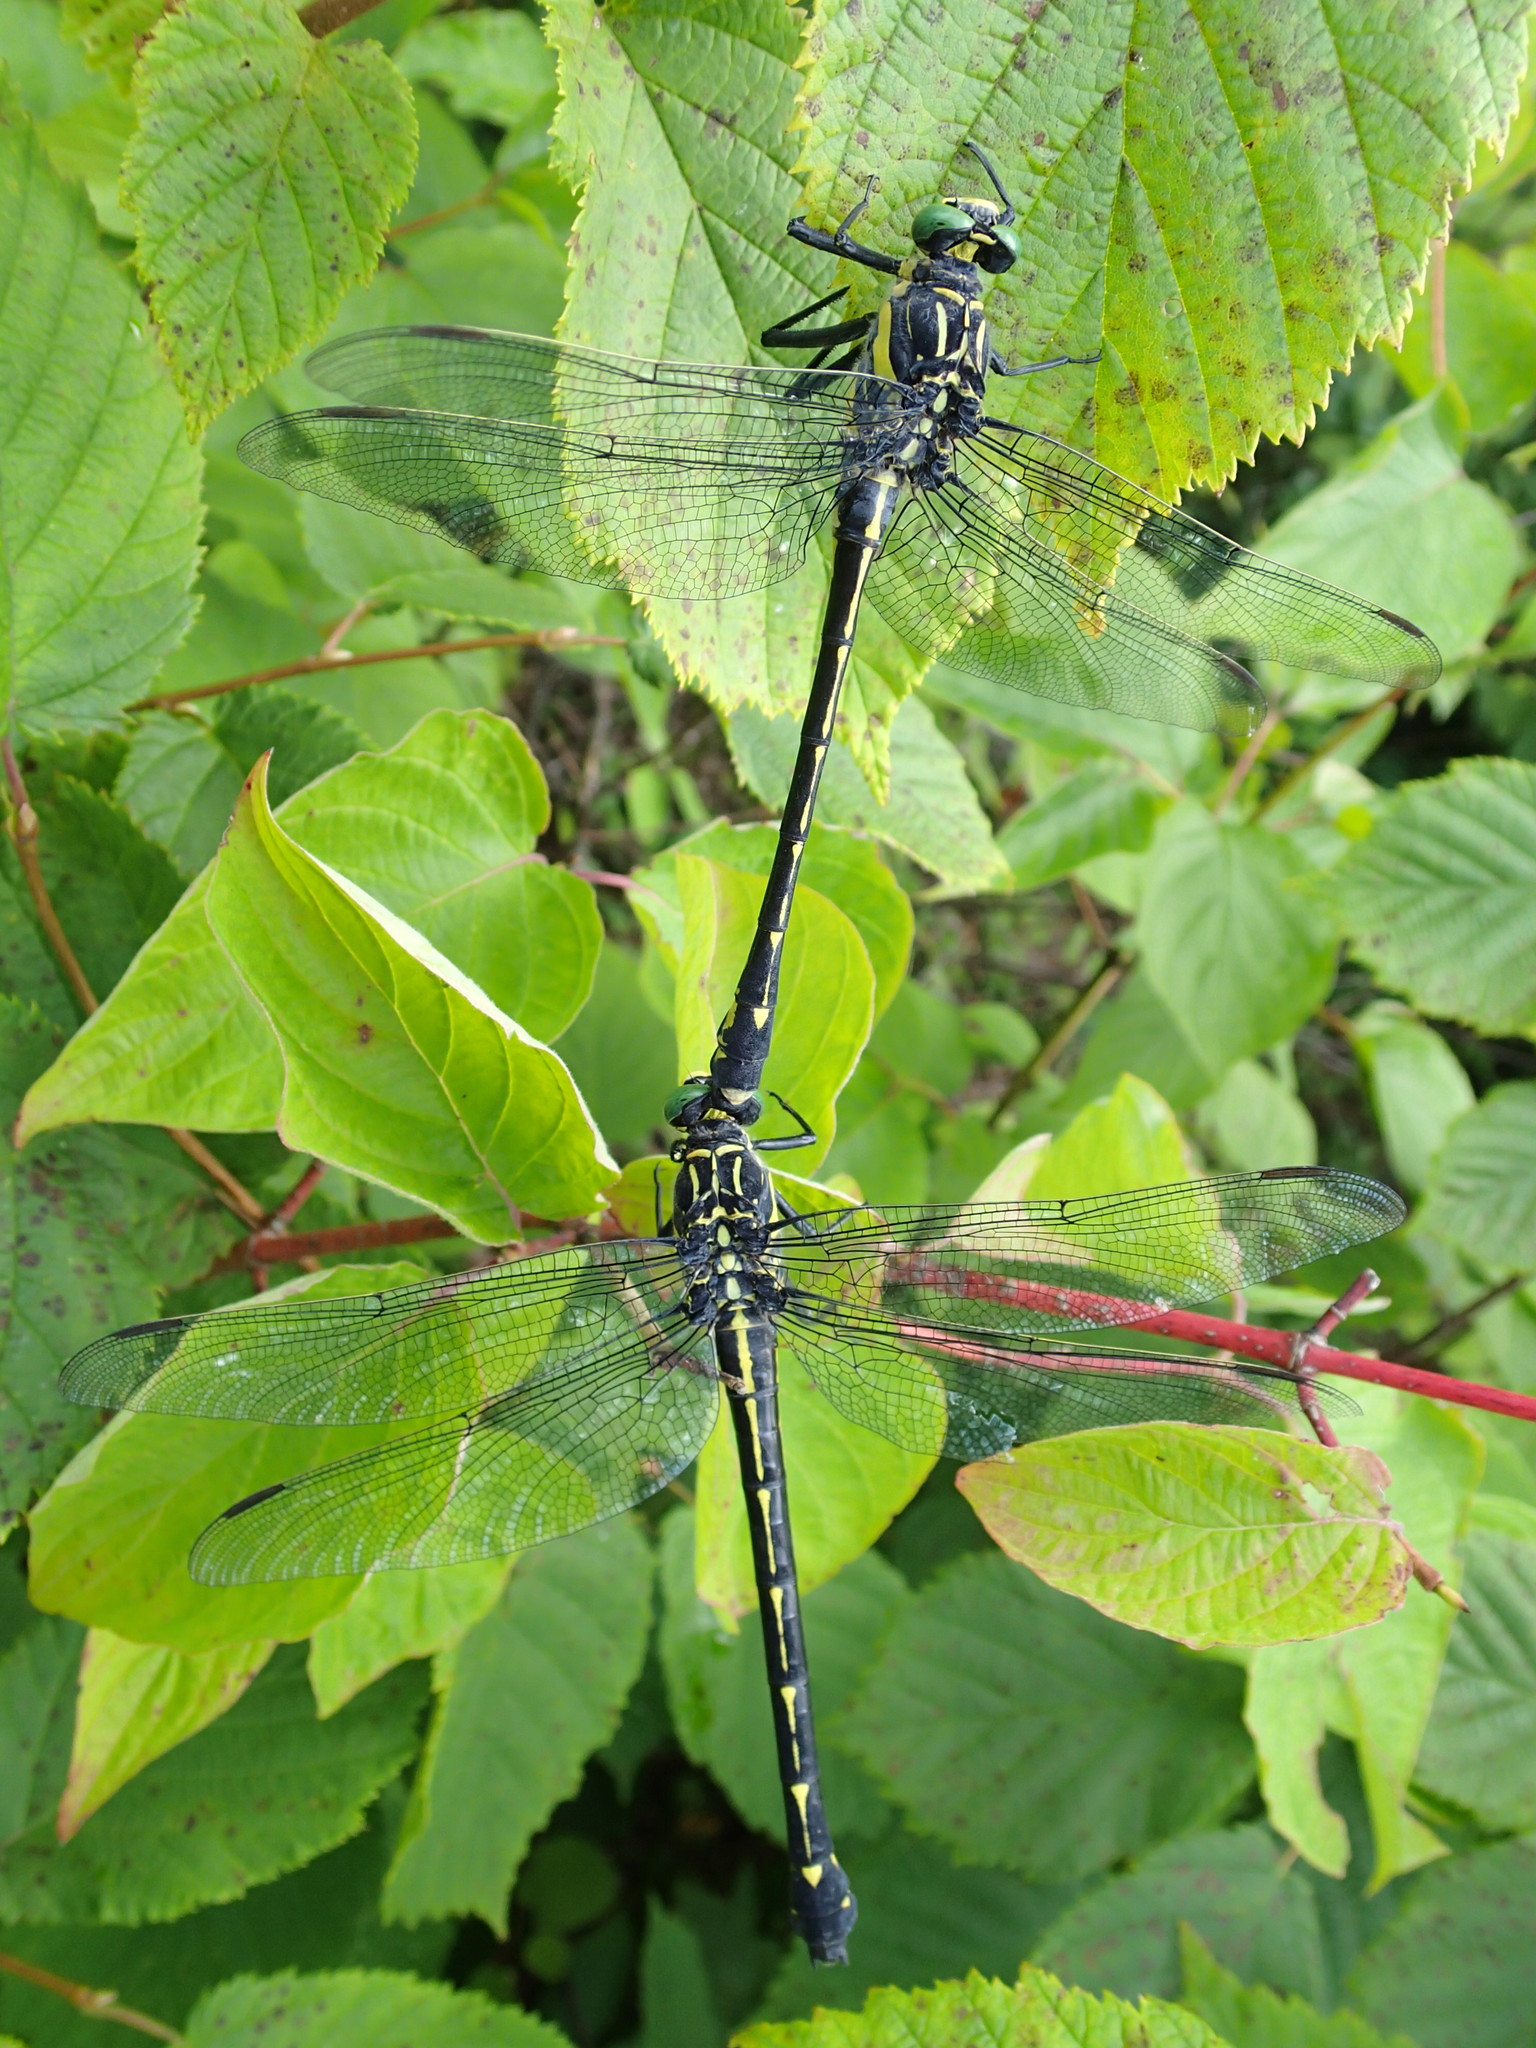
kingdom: Animalia
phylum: Arthropoda
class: Insecta
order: Odonata
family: Gomphidae
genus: Hagenius
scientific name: Hagenius brevistylus
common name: Dragonhunter
